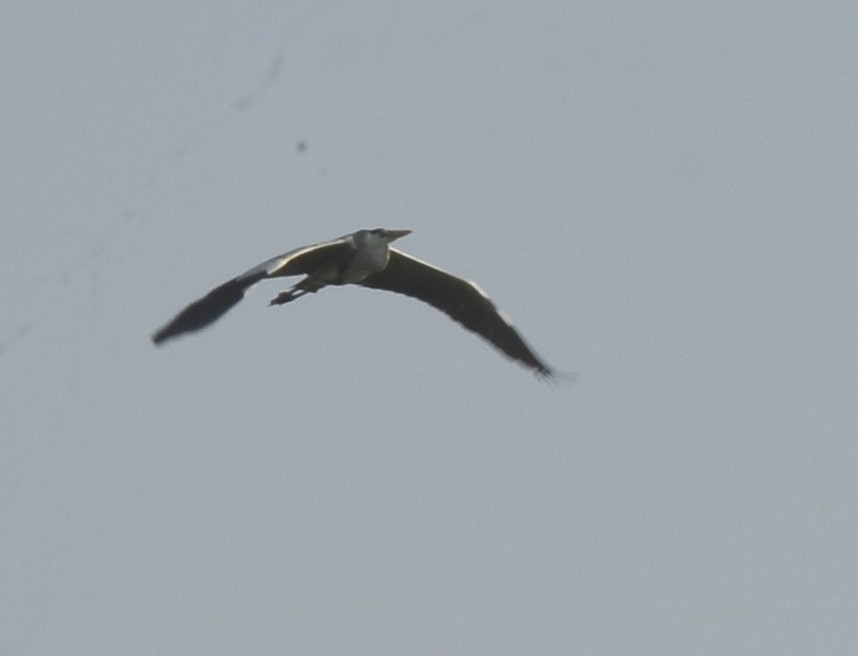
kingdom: Animalia
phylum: Chordata
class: Aves
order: Pelecaniformes
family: Ardeidae
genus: Ardea
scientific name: Ardea cinerea
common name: Grey heron
